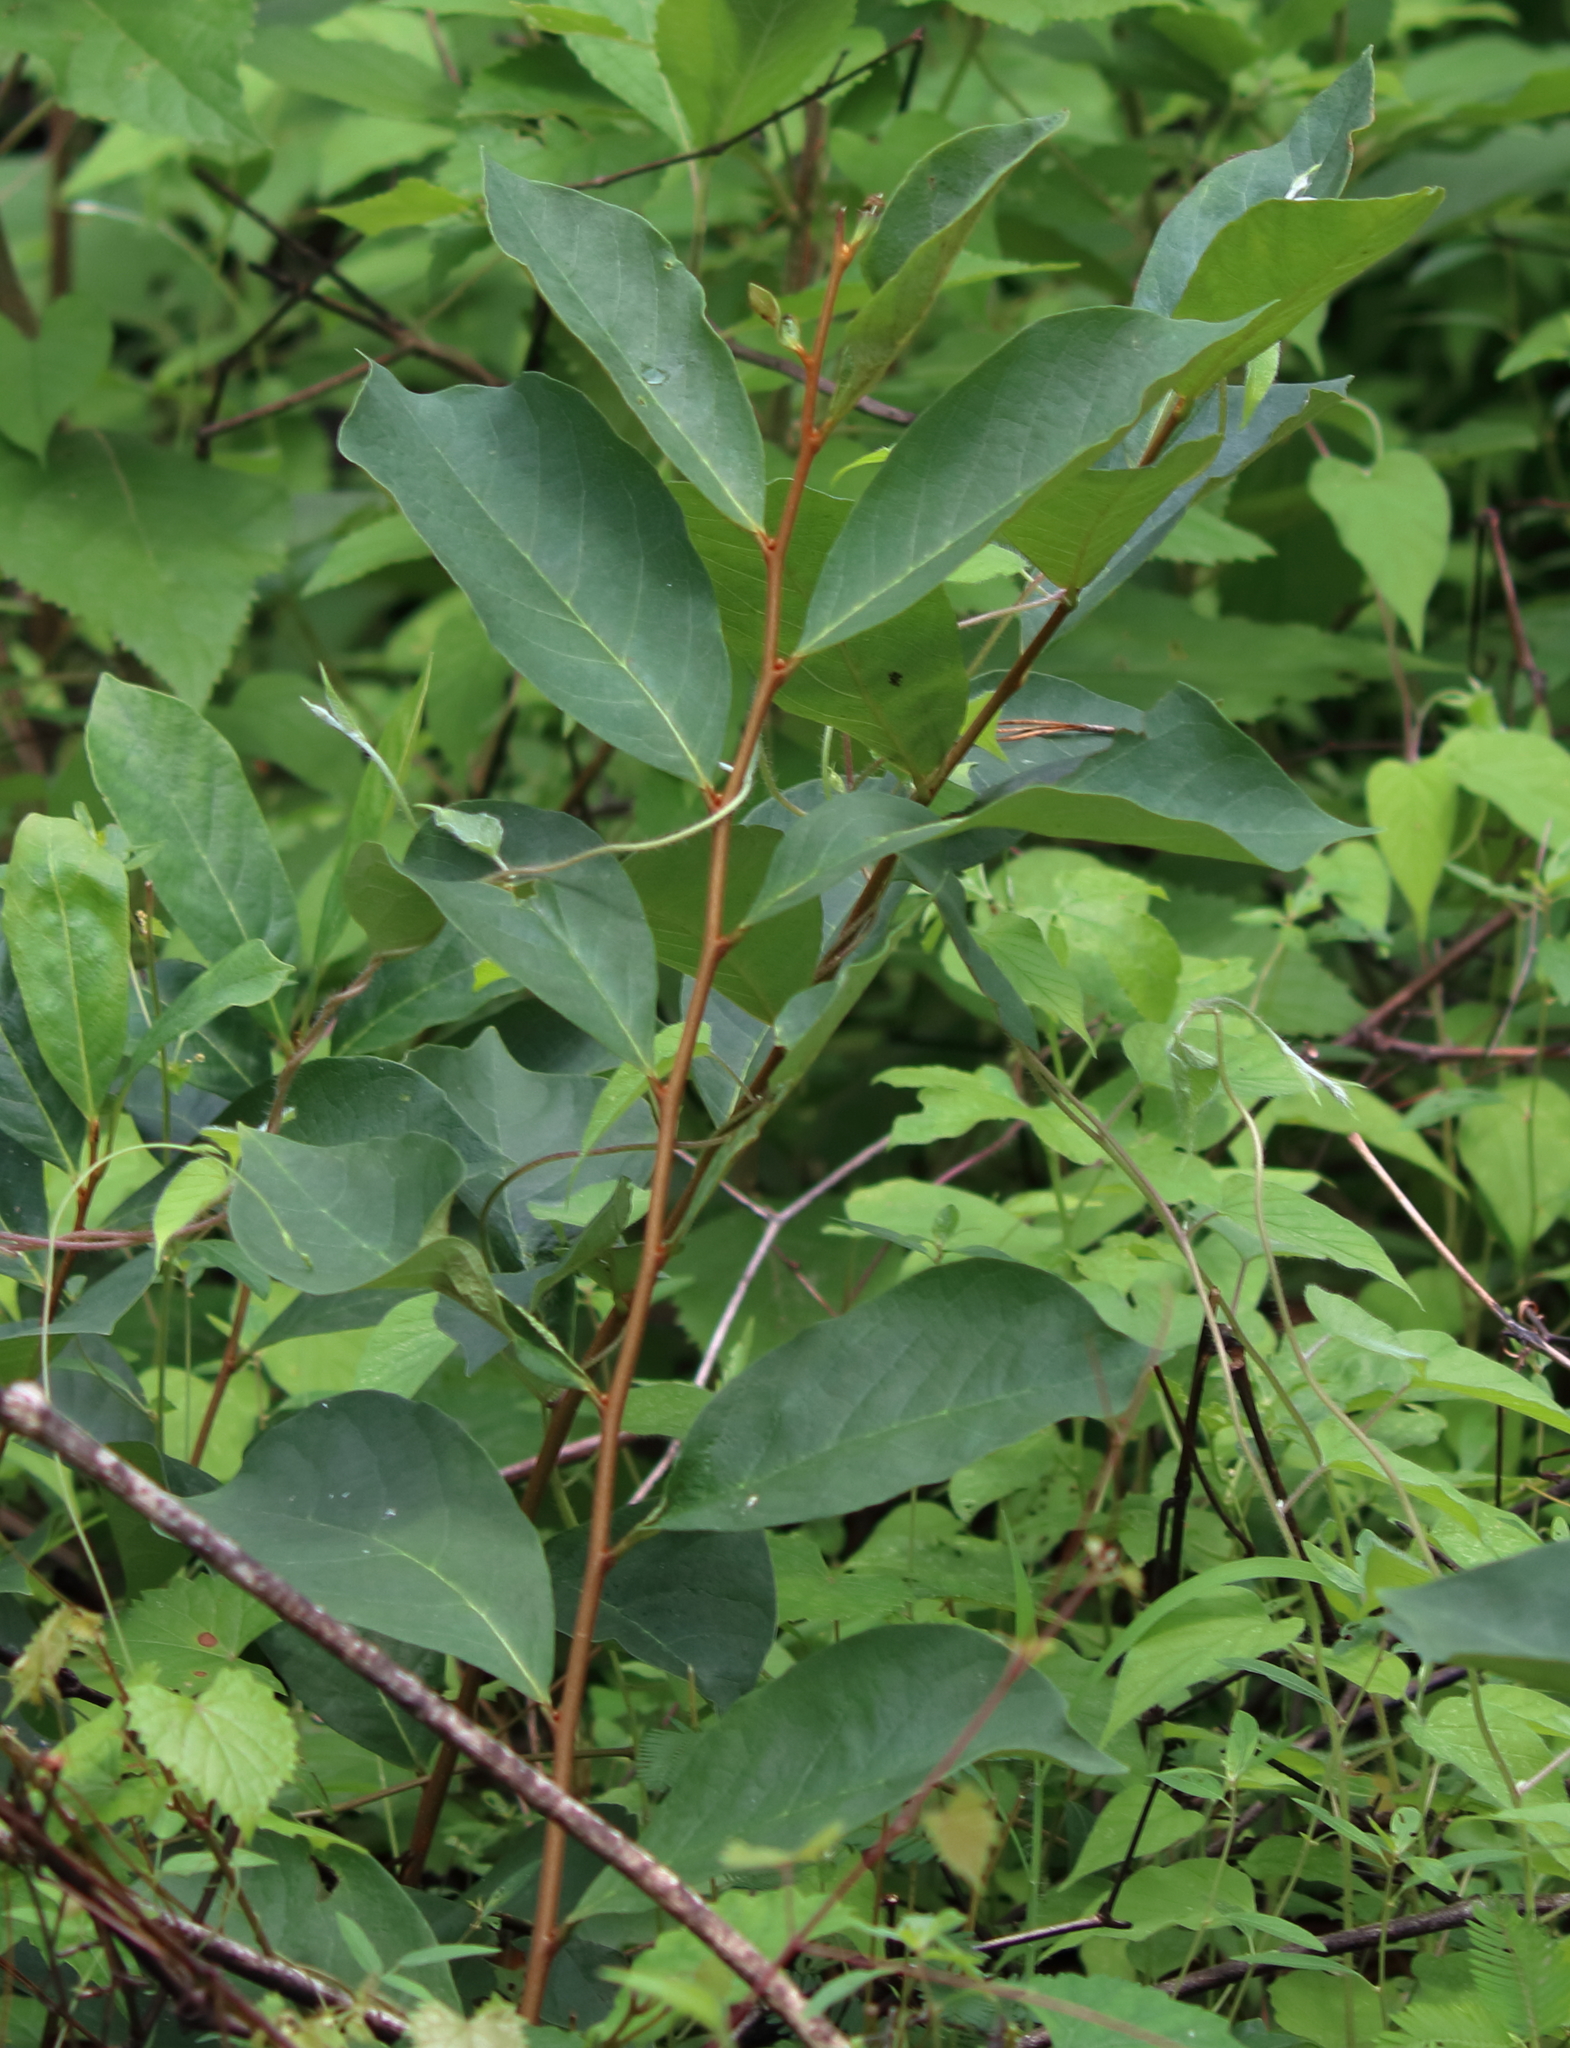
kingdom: Plantae
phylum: Tracheophyta
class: Magnoliopsida
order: Magnoliales
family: Annonaceae
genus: Asimina
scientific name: Asimina parviflora
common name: Dwarf pawpaw
